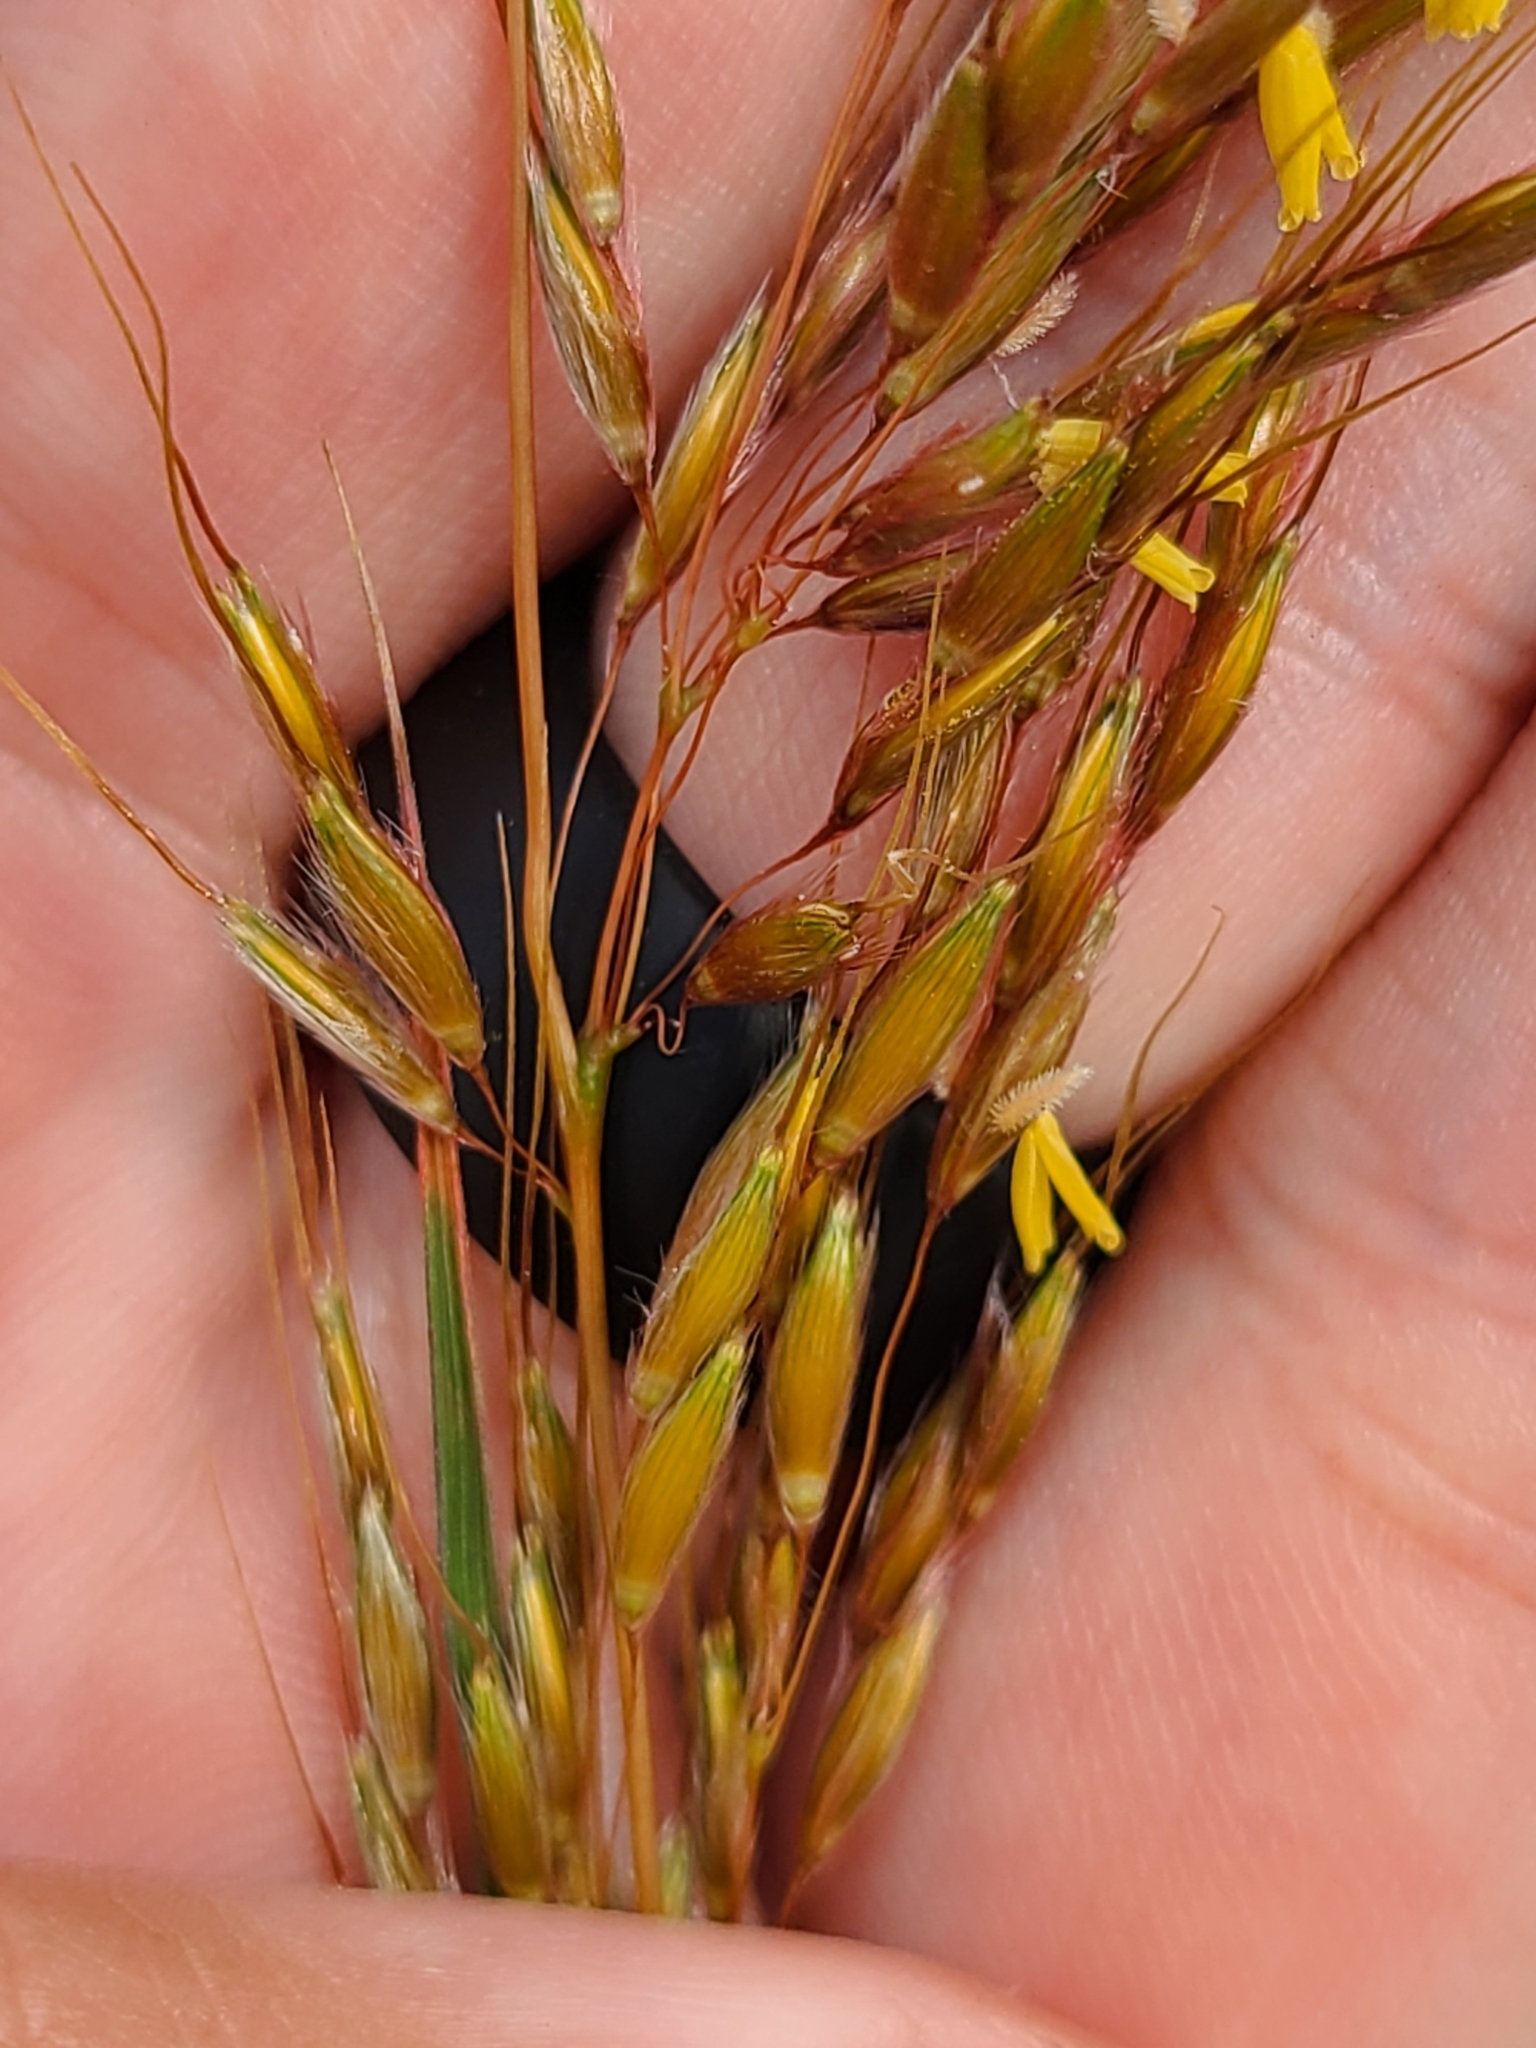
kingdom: Plantae
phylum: Tracheophyta
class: Liliopsida
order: Poales
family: Poaceae
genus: Sorghastrum
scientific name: Sorghastrum nutans
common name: Indian grass
